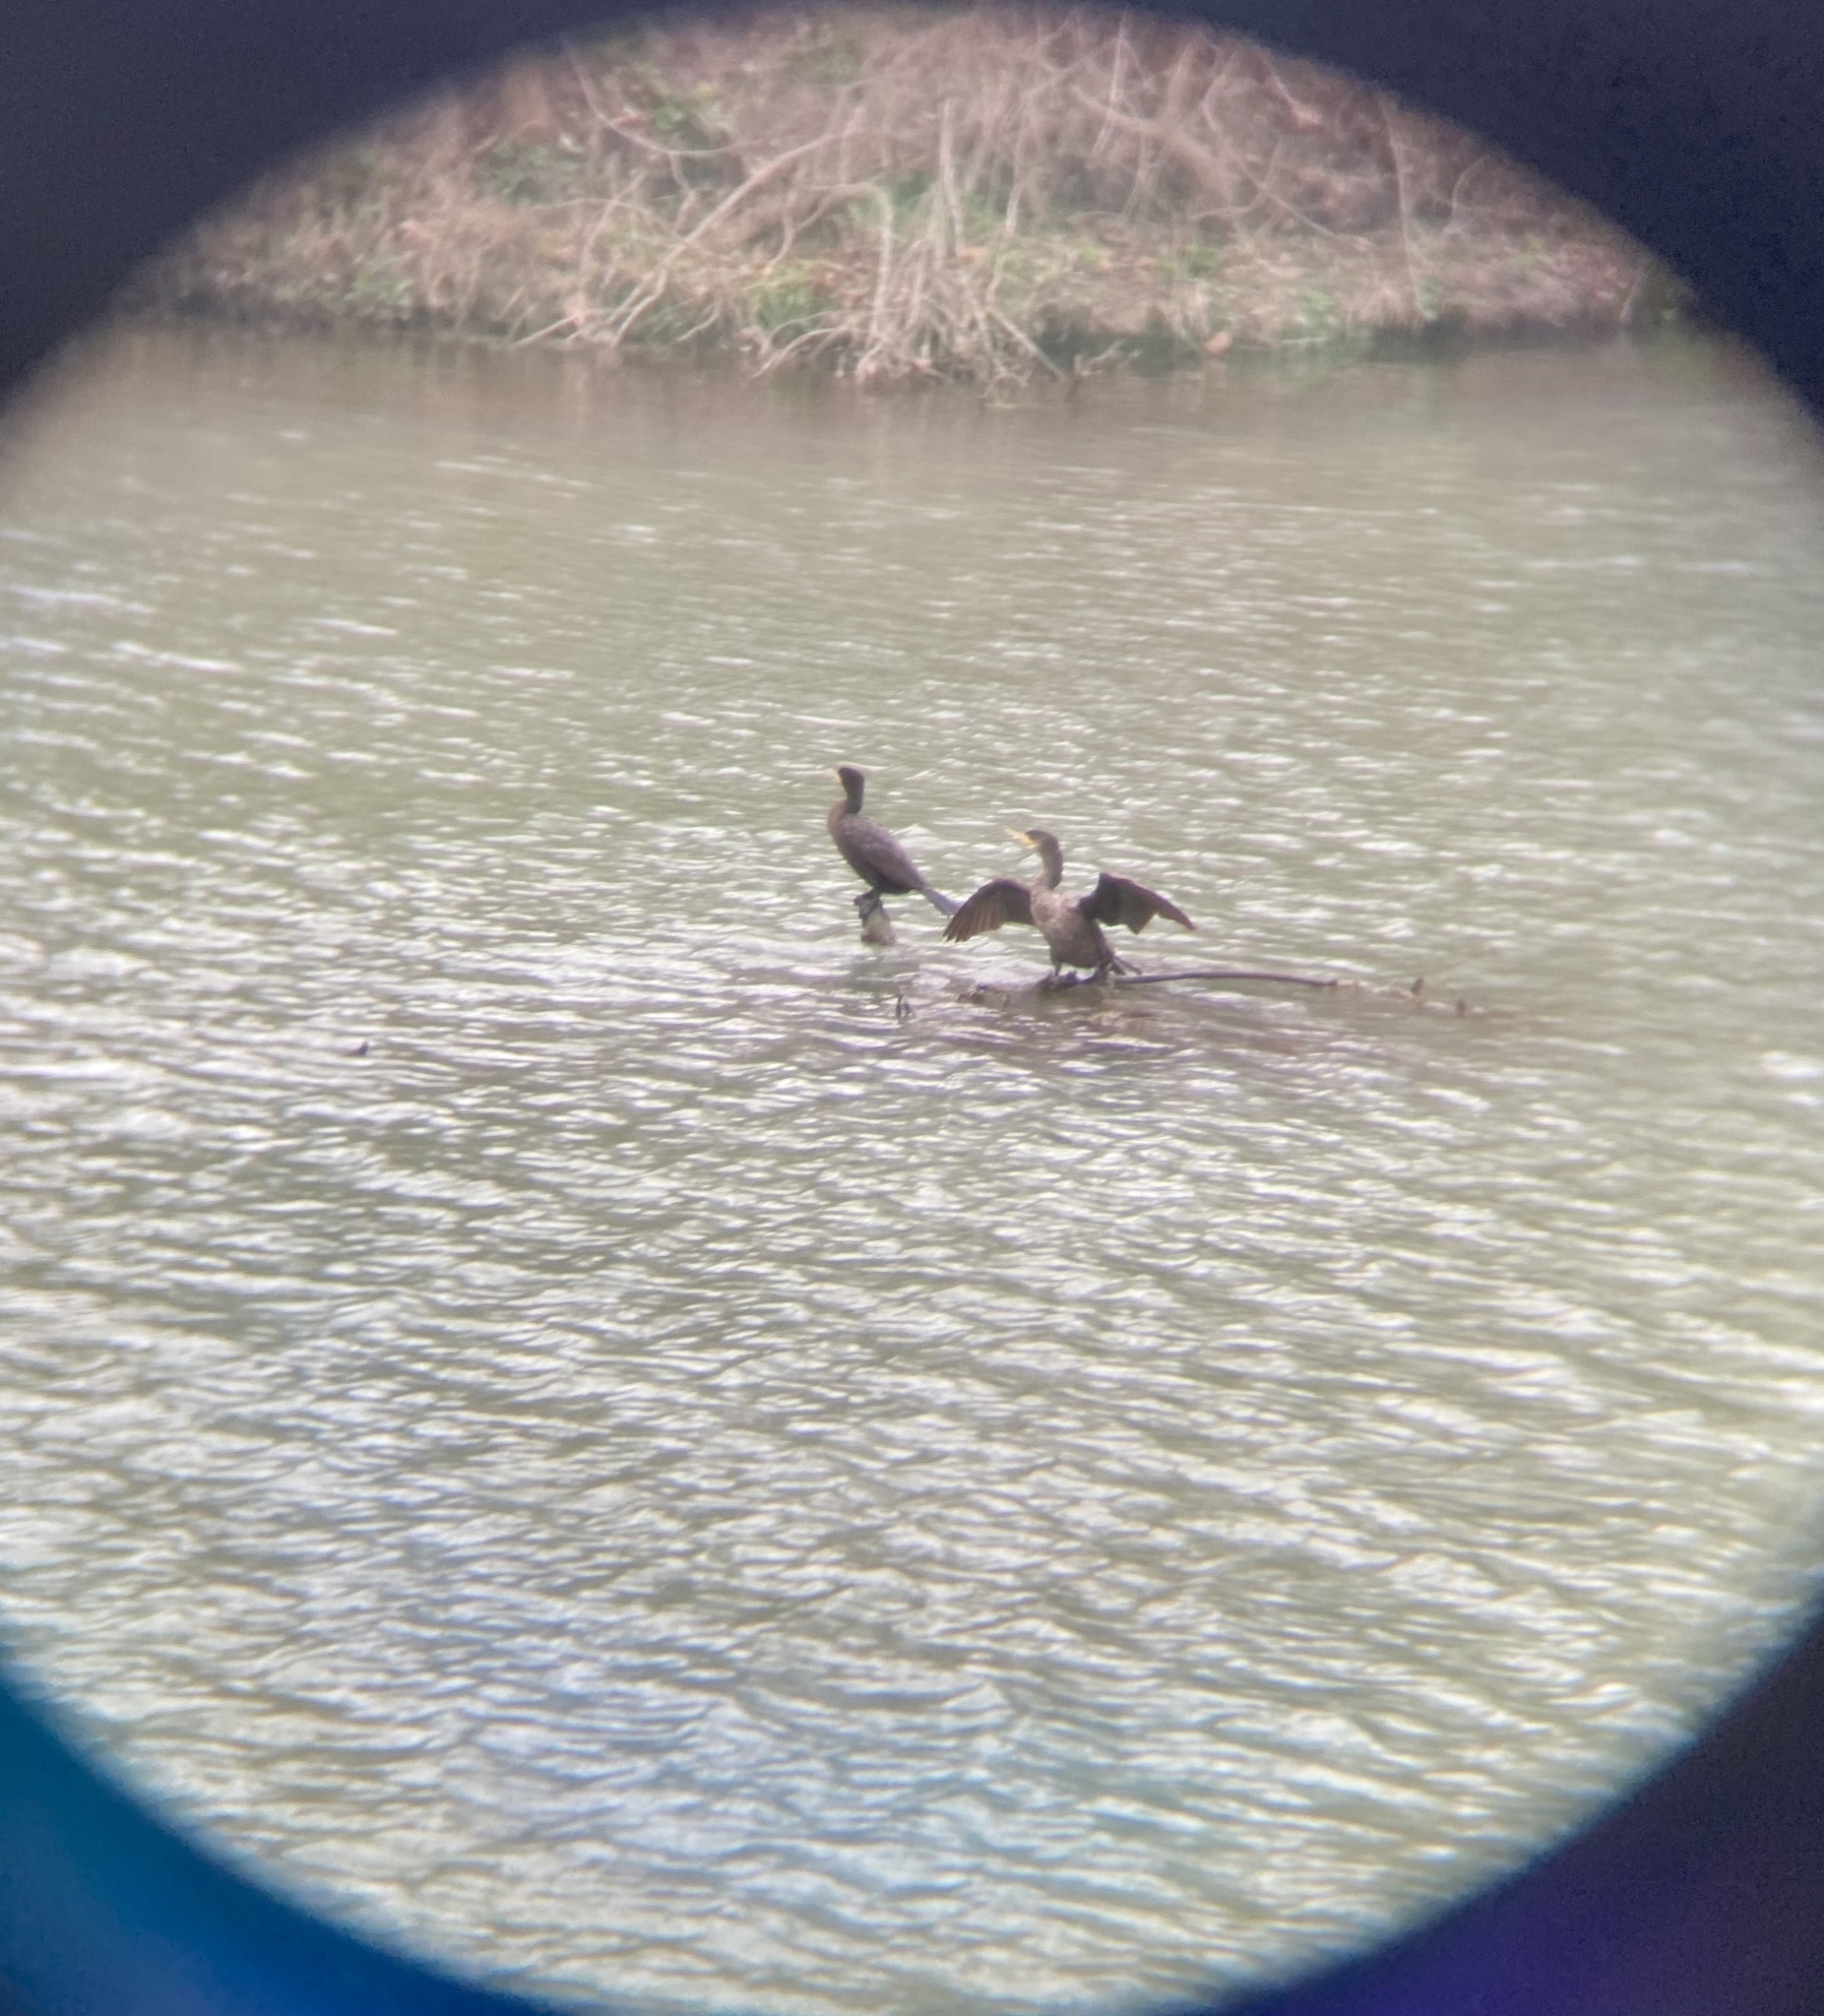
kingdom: Animalia
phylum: Chordata
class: Aves
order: Suliformes
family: Phalacrocoracidae
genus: Phalacrocorax
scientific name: Phalacrocorax auritus
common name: Double-crested cormorant
